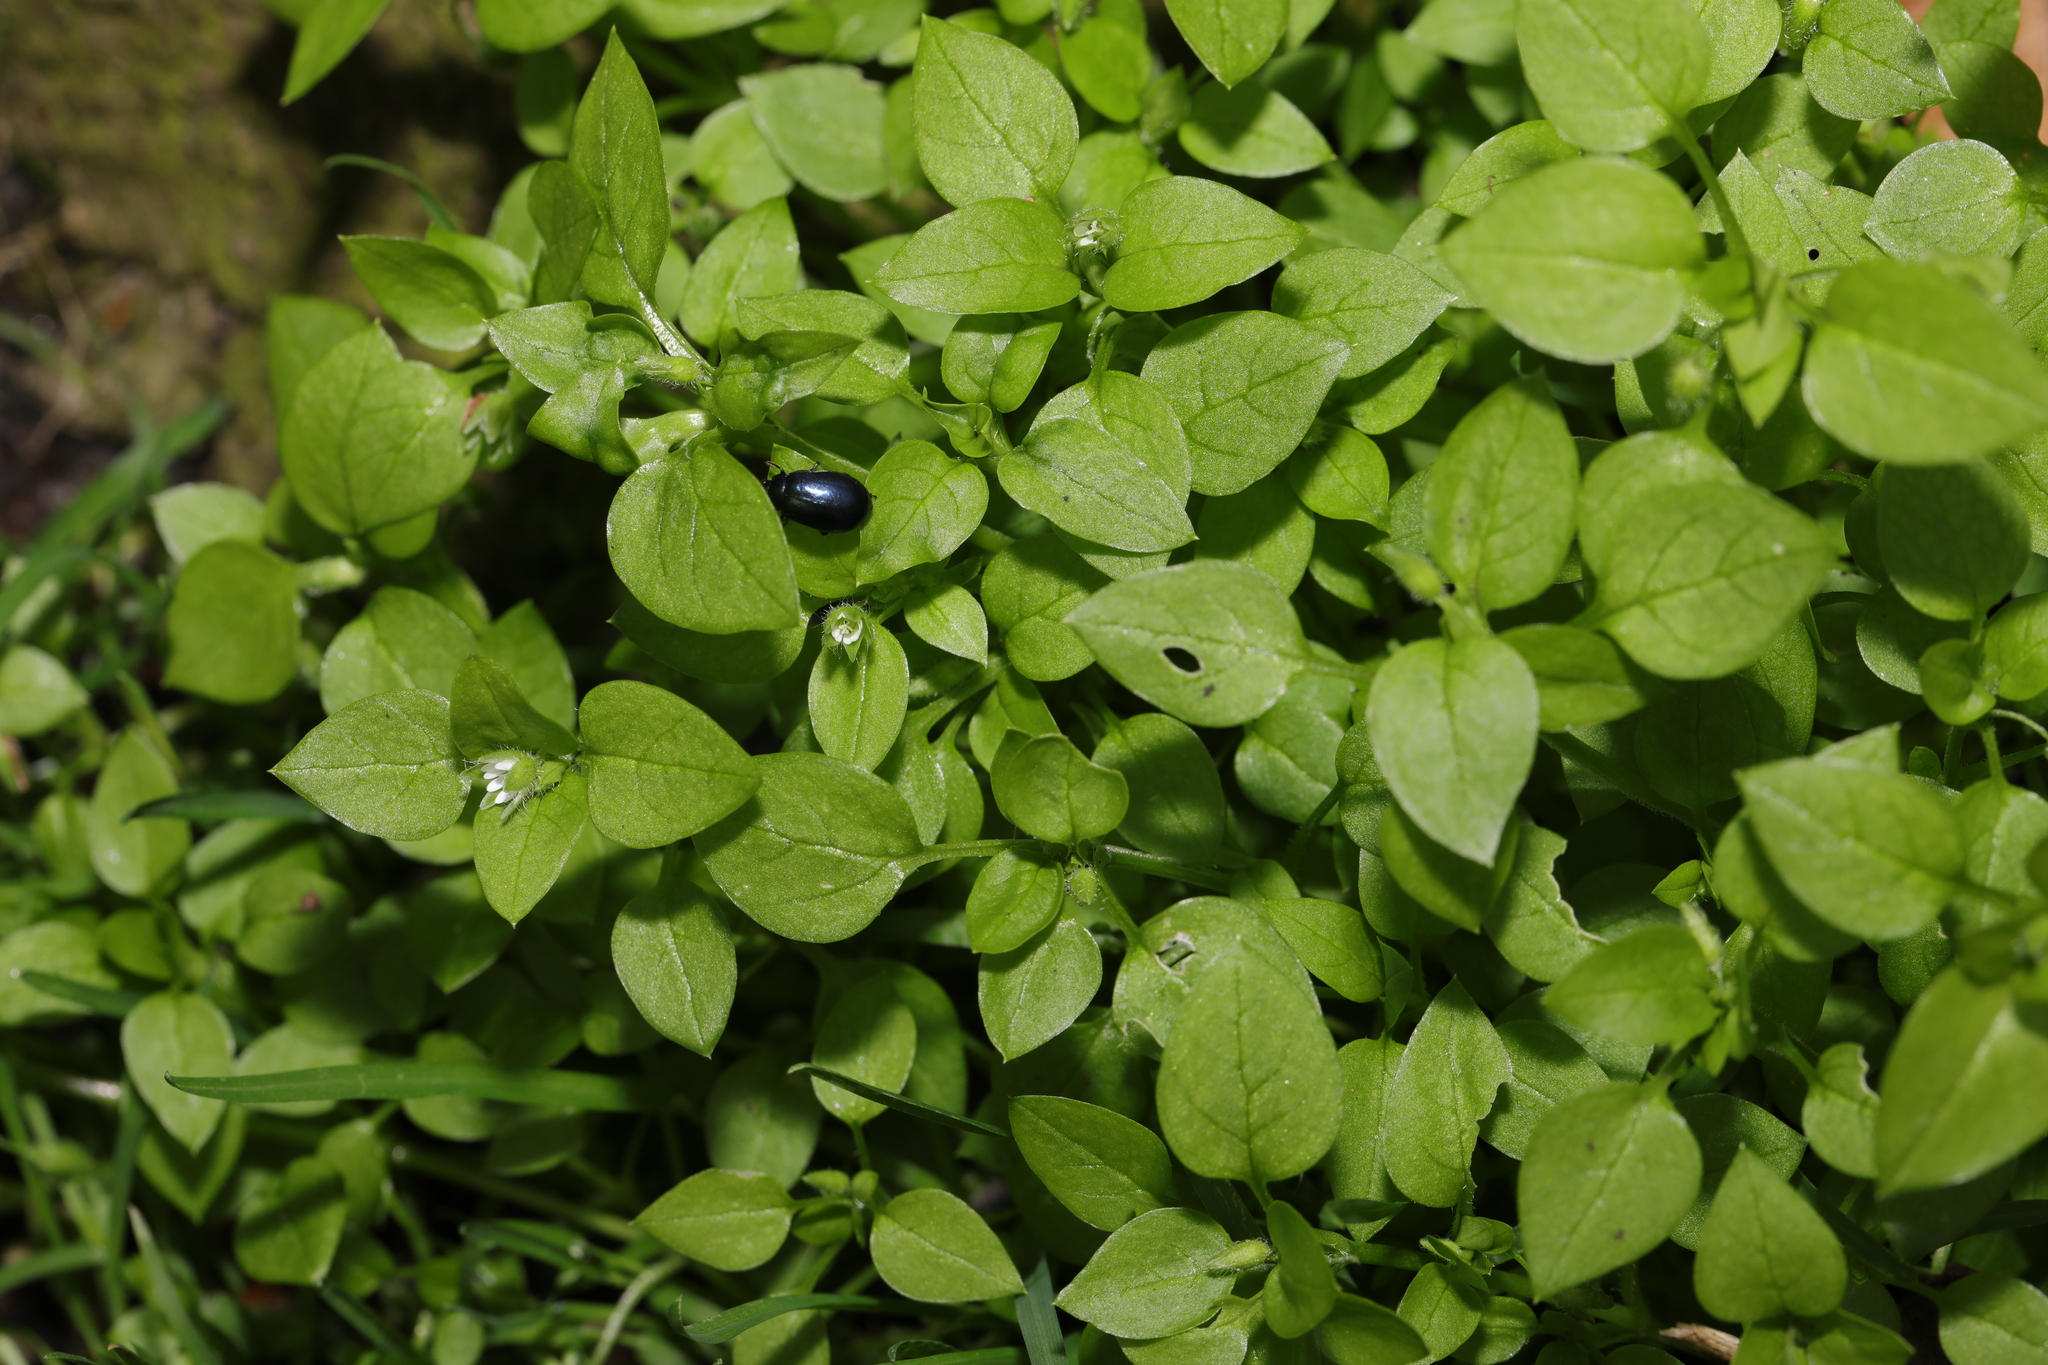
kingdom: Plantae
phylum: Tracheophyta
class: Magnoliopsida
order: Caryophyllales
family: Caryophyllaceae
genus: Stellaria
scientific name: Stellaria media
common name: Common chickweed
